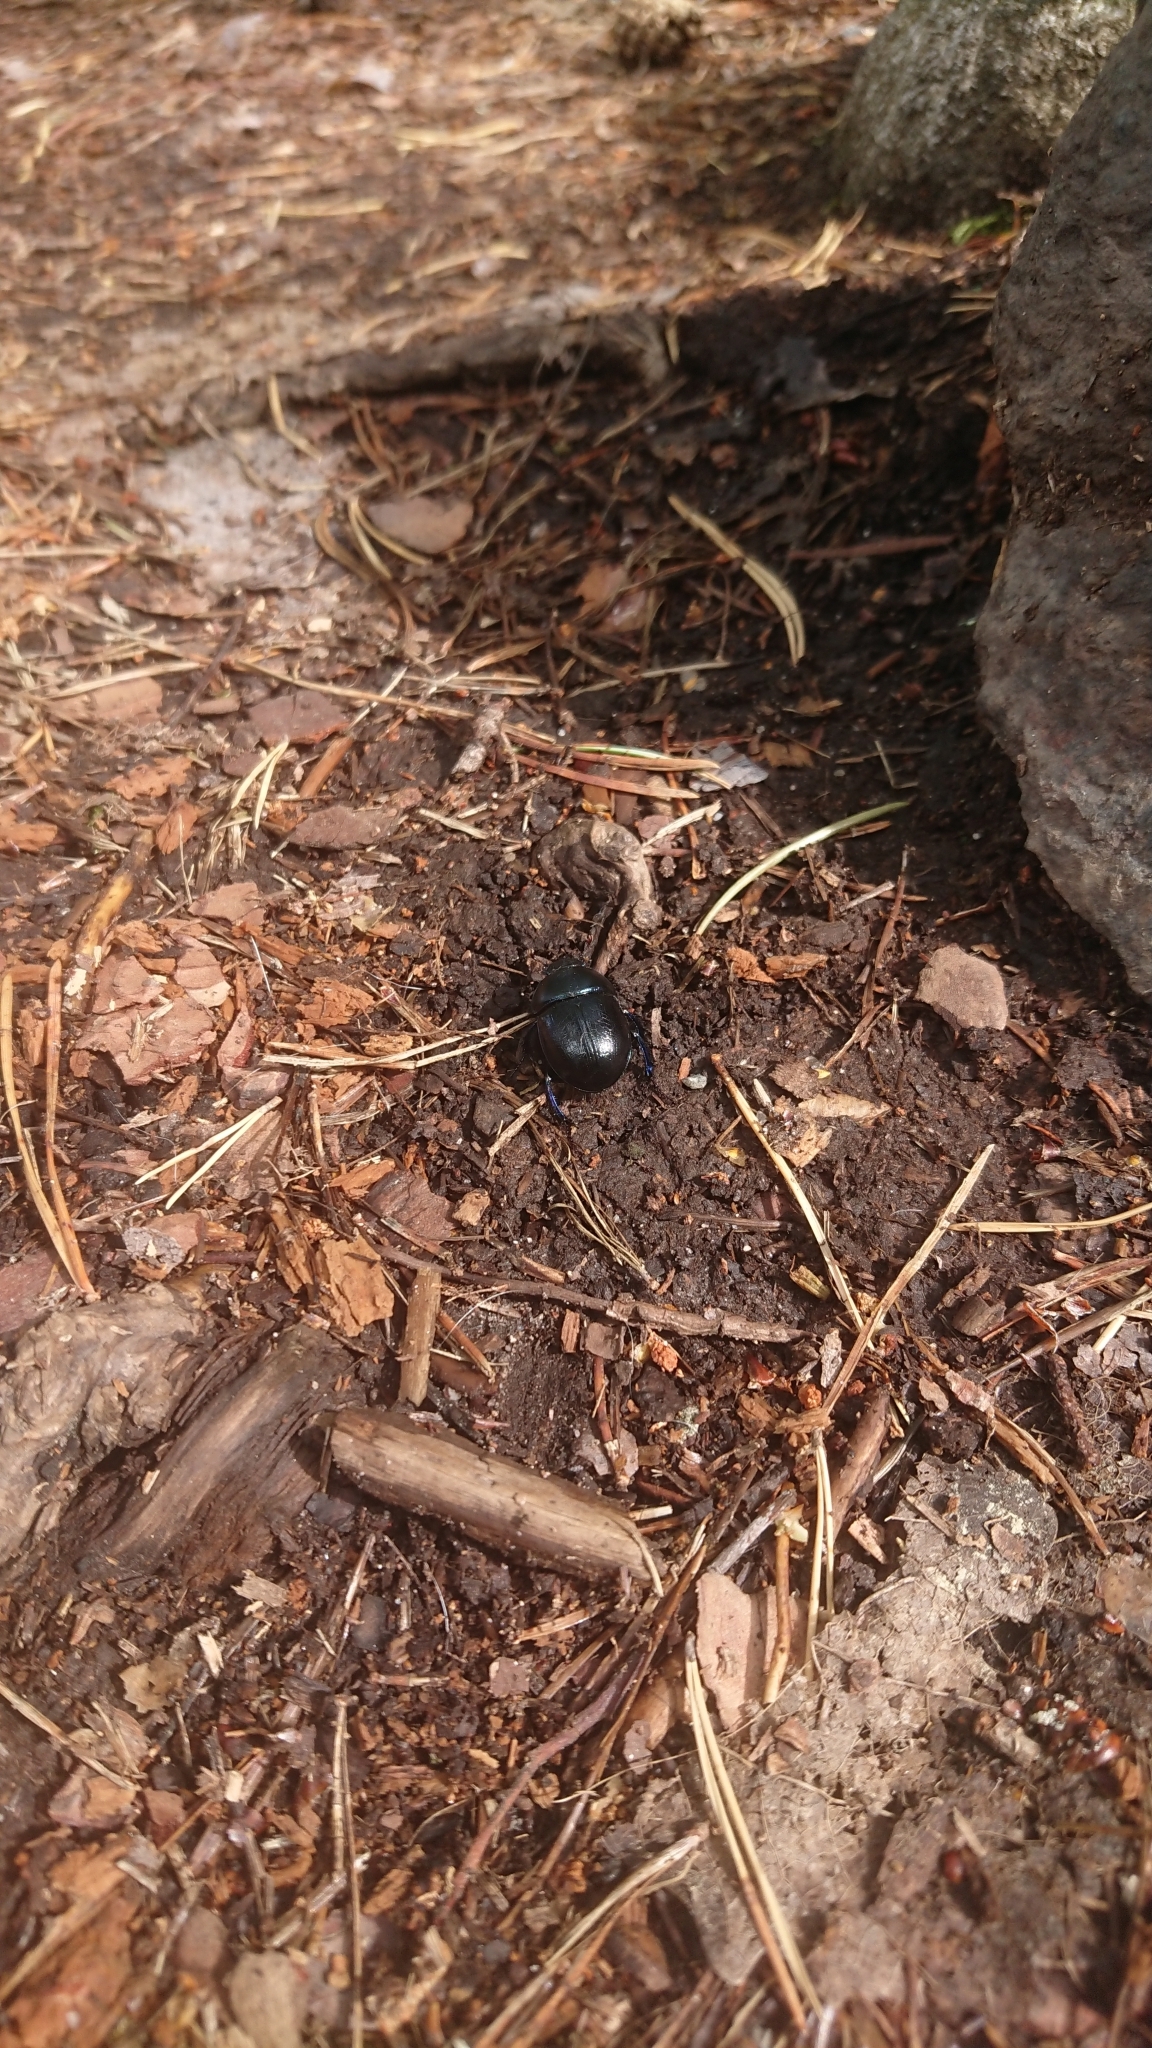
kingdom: Animalia
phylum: Arthropoda
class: Insecta
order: Coleoptera
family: Geotrupidae
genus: Anoplotrupes
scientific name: Anoplotrupes stercorosus
